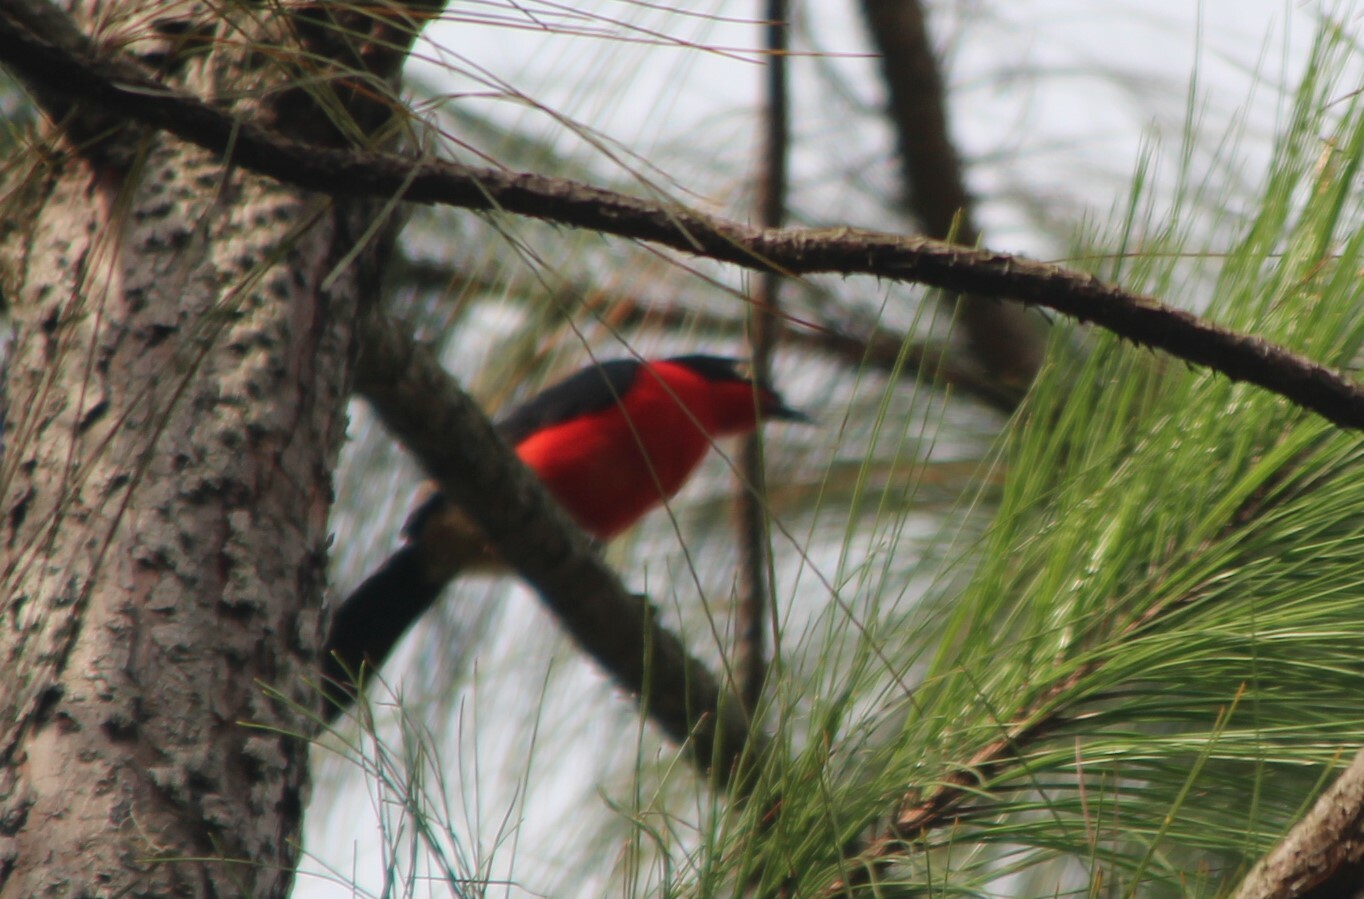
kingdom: Animalia
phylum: Chordata
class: Aves
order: Passeriformes
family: Malaconotidae
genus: Laniarius
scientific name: Laniarius erythrogaster
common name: Black-headed gonolek
